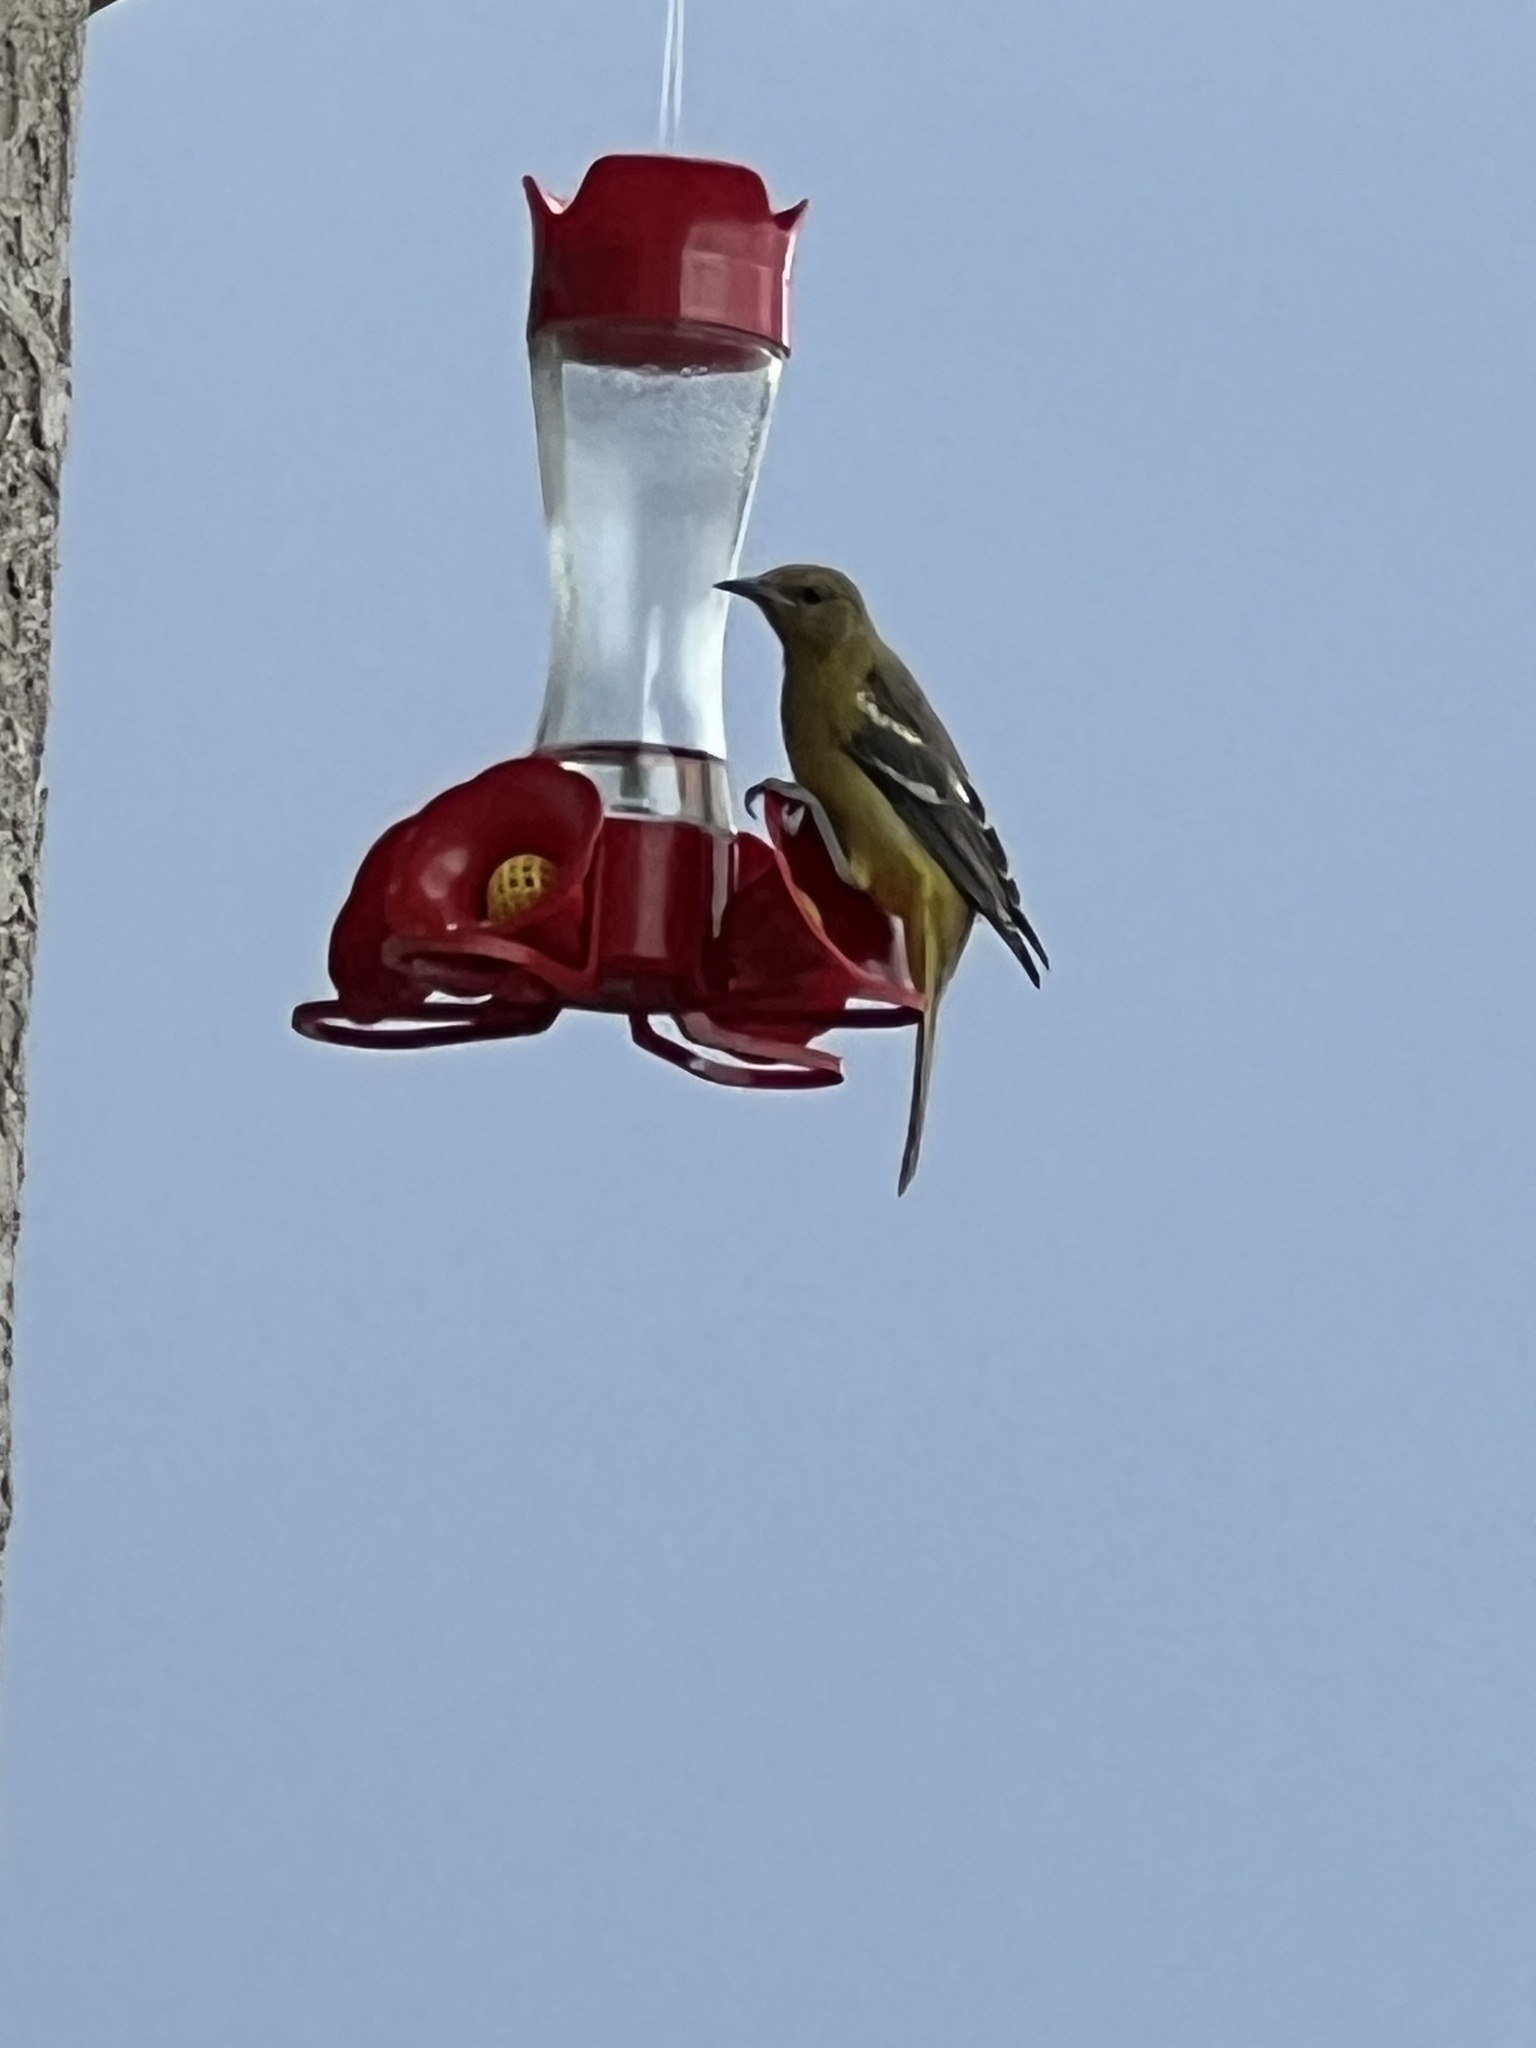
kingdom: Animalia
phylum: Chordata
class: Aves
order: Passeriformes
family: Icteridae
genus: Icterus
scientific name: Icterus parisorum
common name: Scott's oriole
